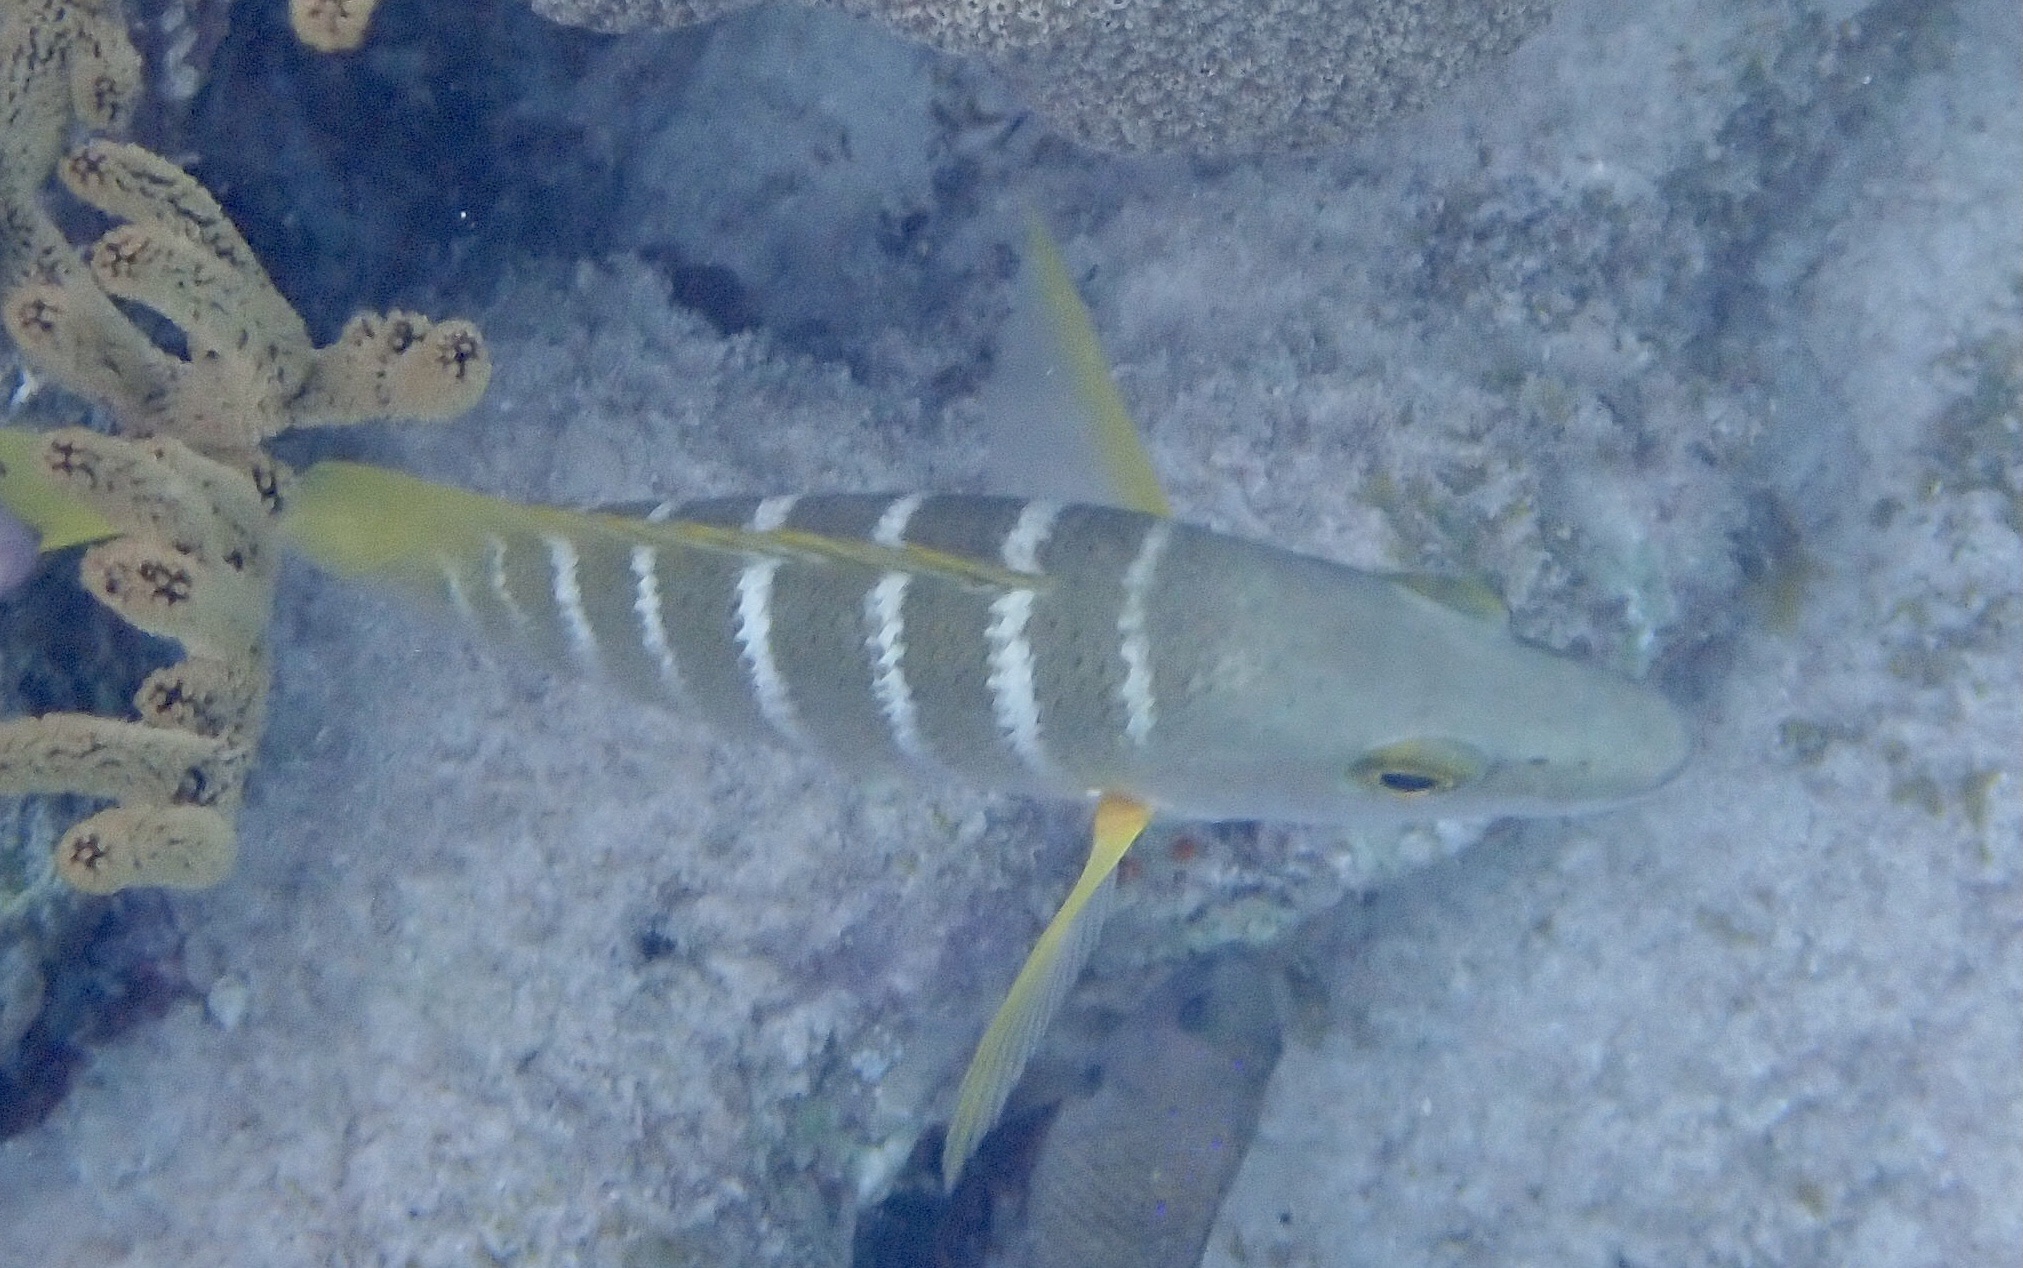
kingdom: Animalia
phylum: Chordata
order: Perciformes
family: Lutjanidae
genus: Lutjanus
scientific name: Lutjanus apodus
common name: Schoolmaster
